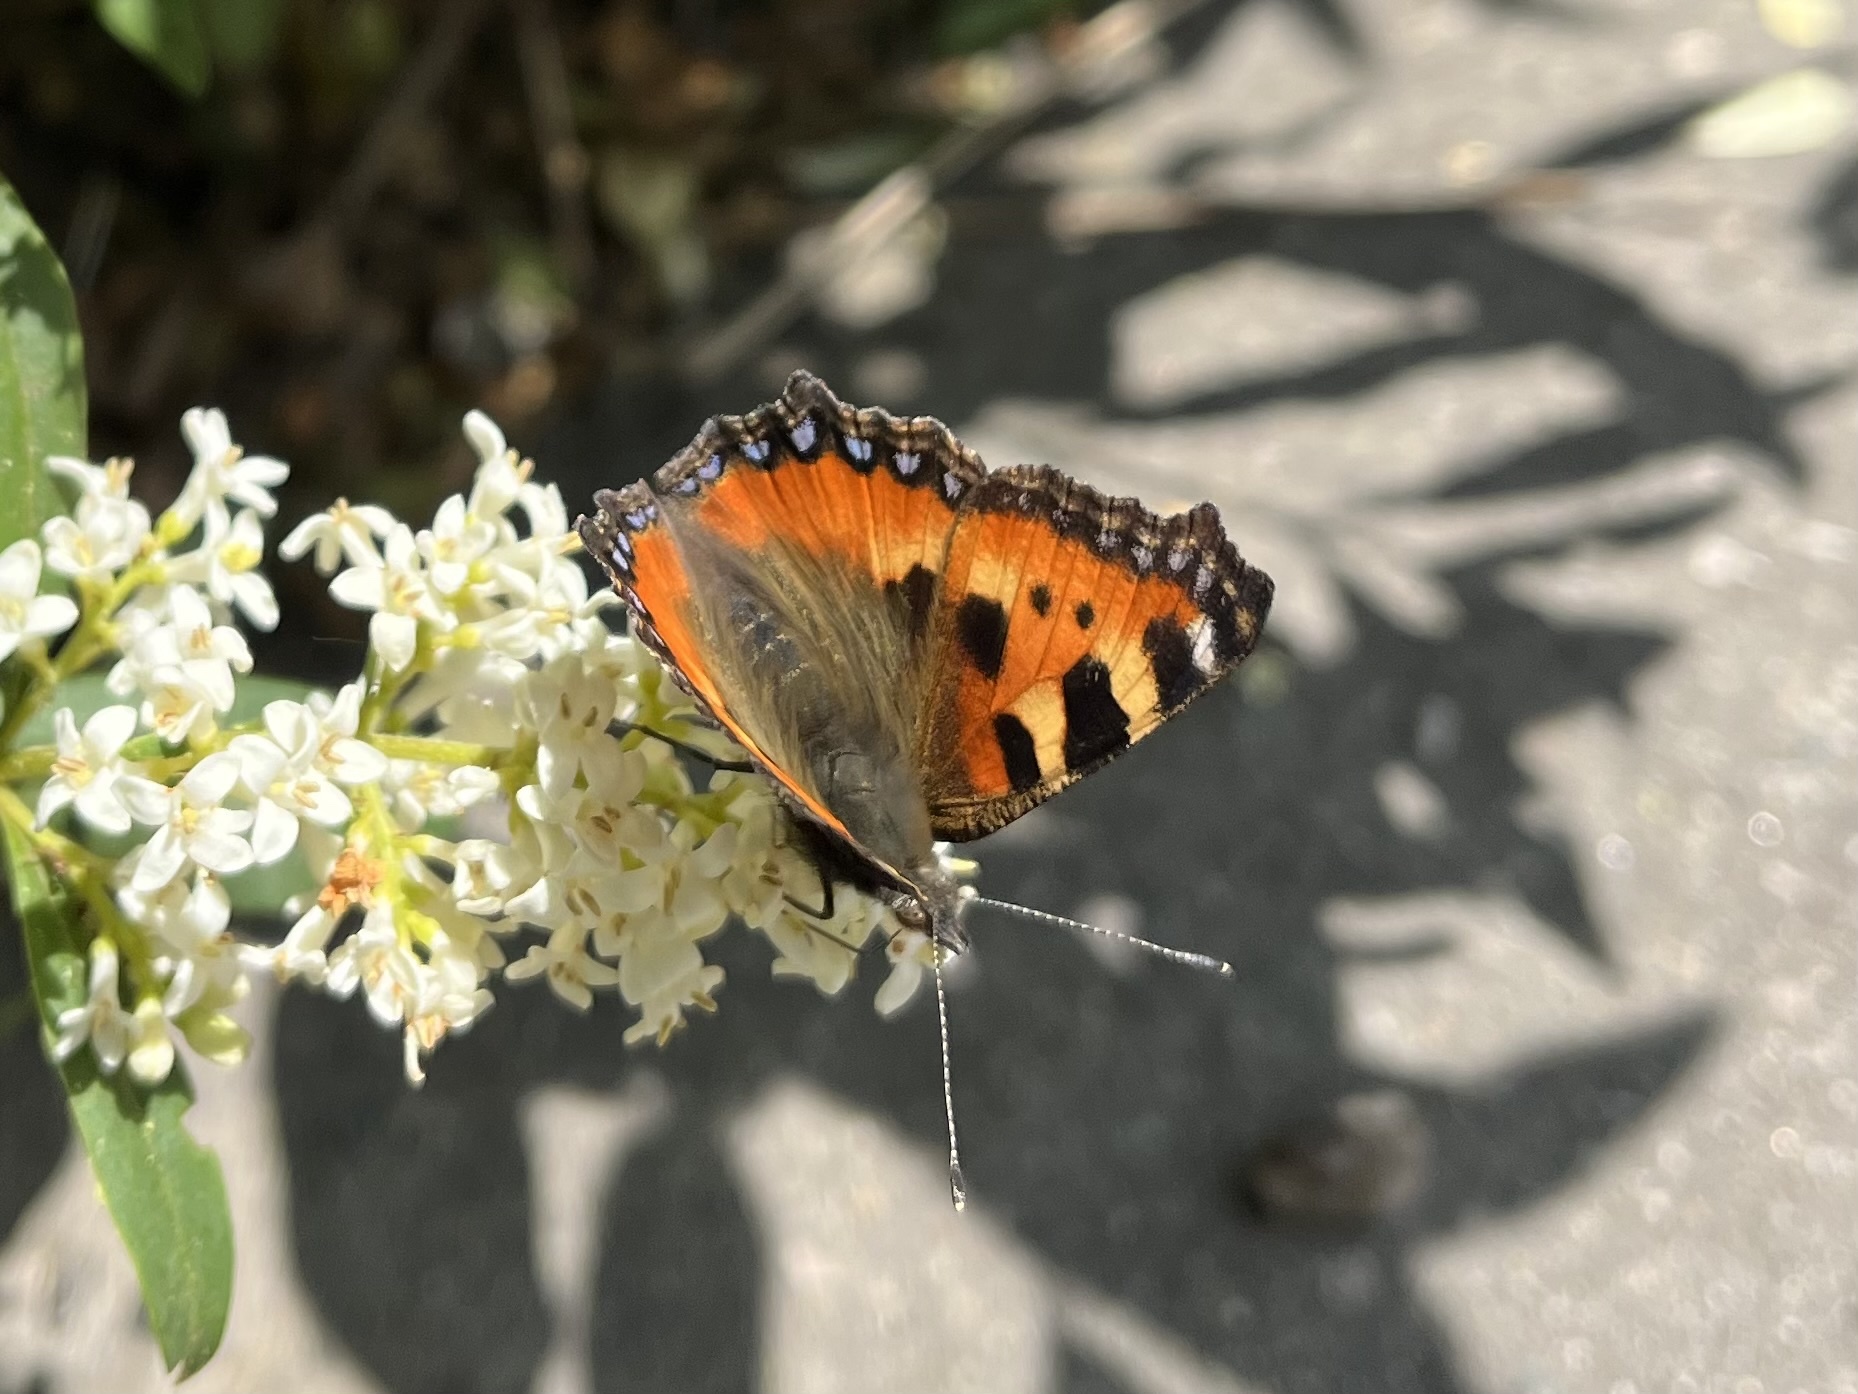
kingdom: Animalia
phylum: Arthropoda
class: Insecta
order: Lepidoptera
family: Nymphalidae
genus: Aglais
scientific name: Aglais urticae
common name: Small tortoiseshell
